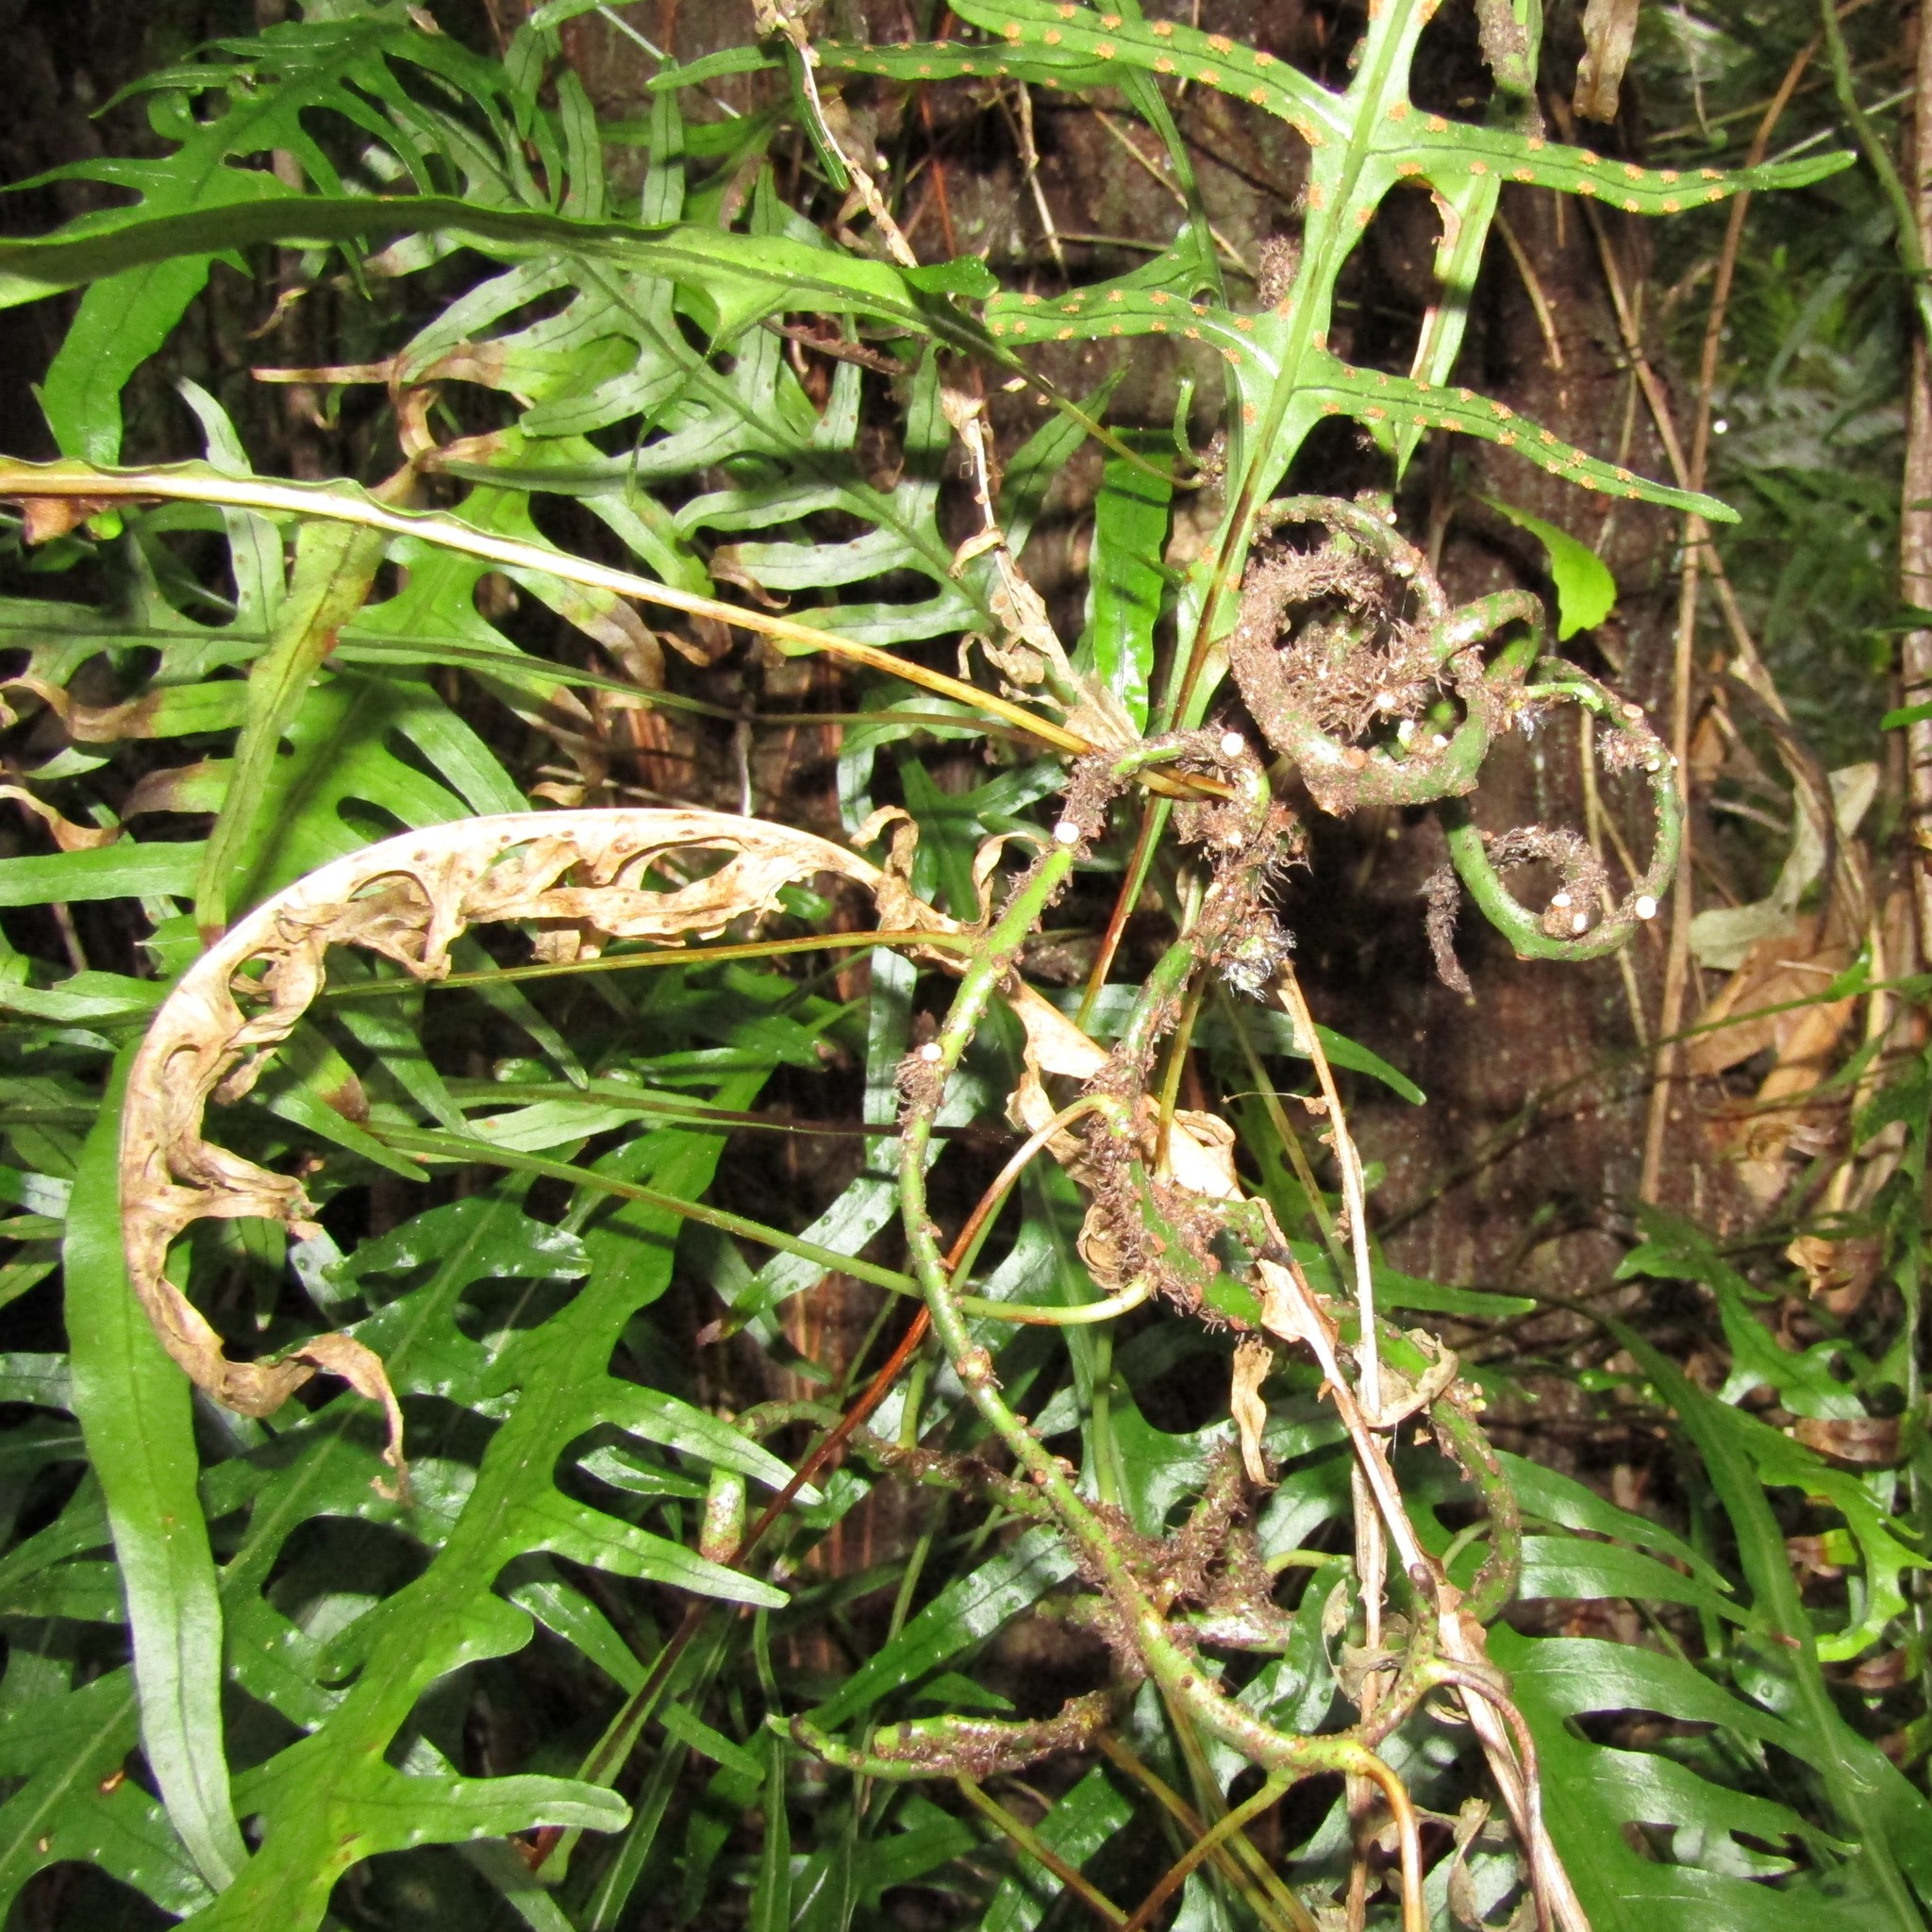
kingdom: Plantae
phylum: Tracheophyta
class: Polypodiopsida
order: Polypodiales
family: Polypodiaceae
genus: Lecanopteris
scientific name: Lecanopteris scandens
